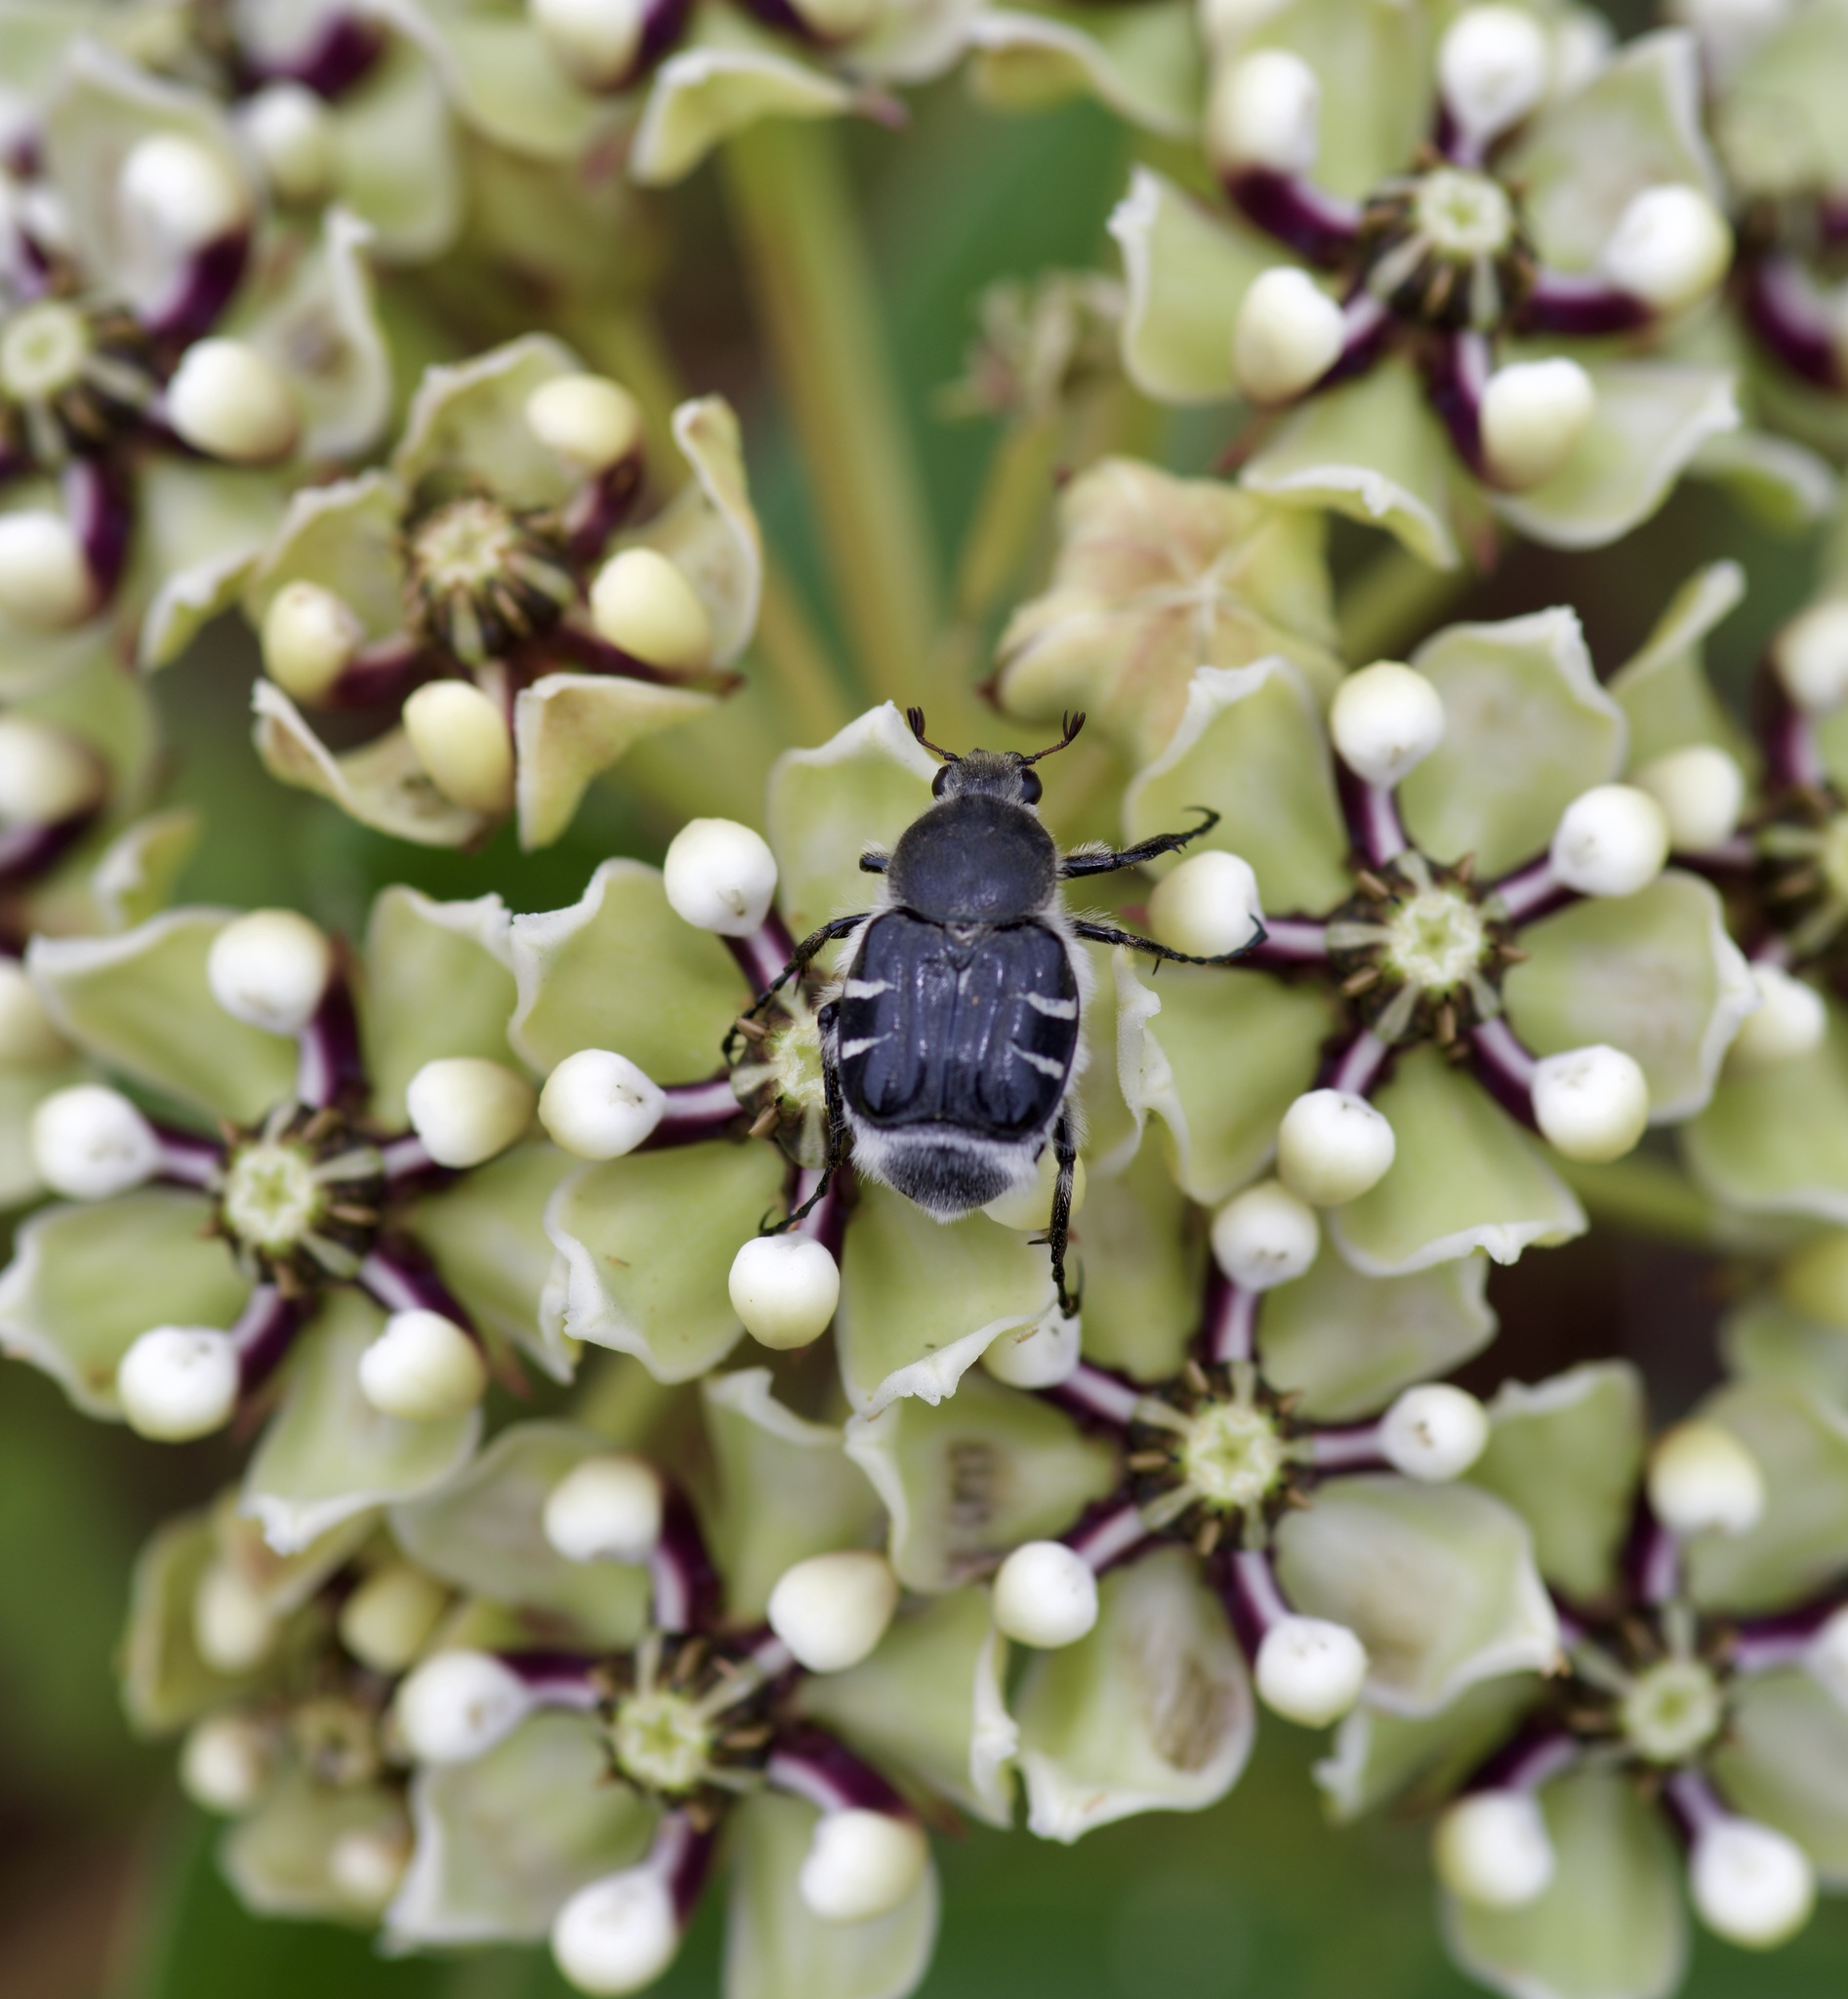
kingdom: Animalia
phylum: Arthropoda
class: Insecta
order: Coleoptera
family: Scarabaeidae
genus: Trichiotinus
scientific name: Trichiotinus texanus
